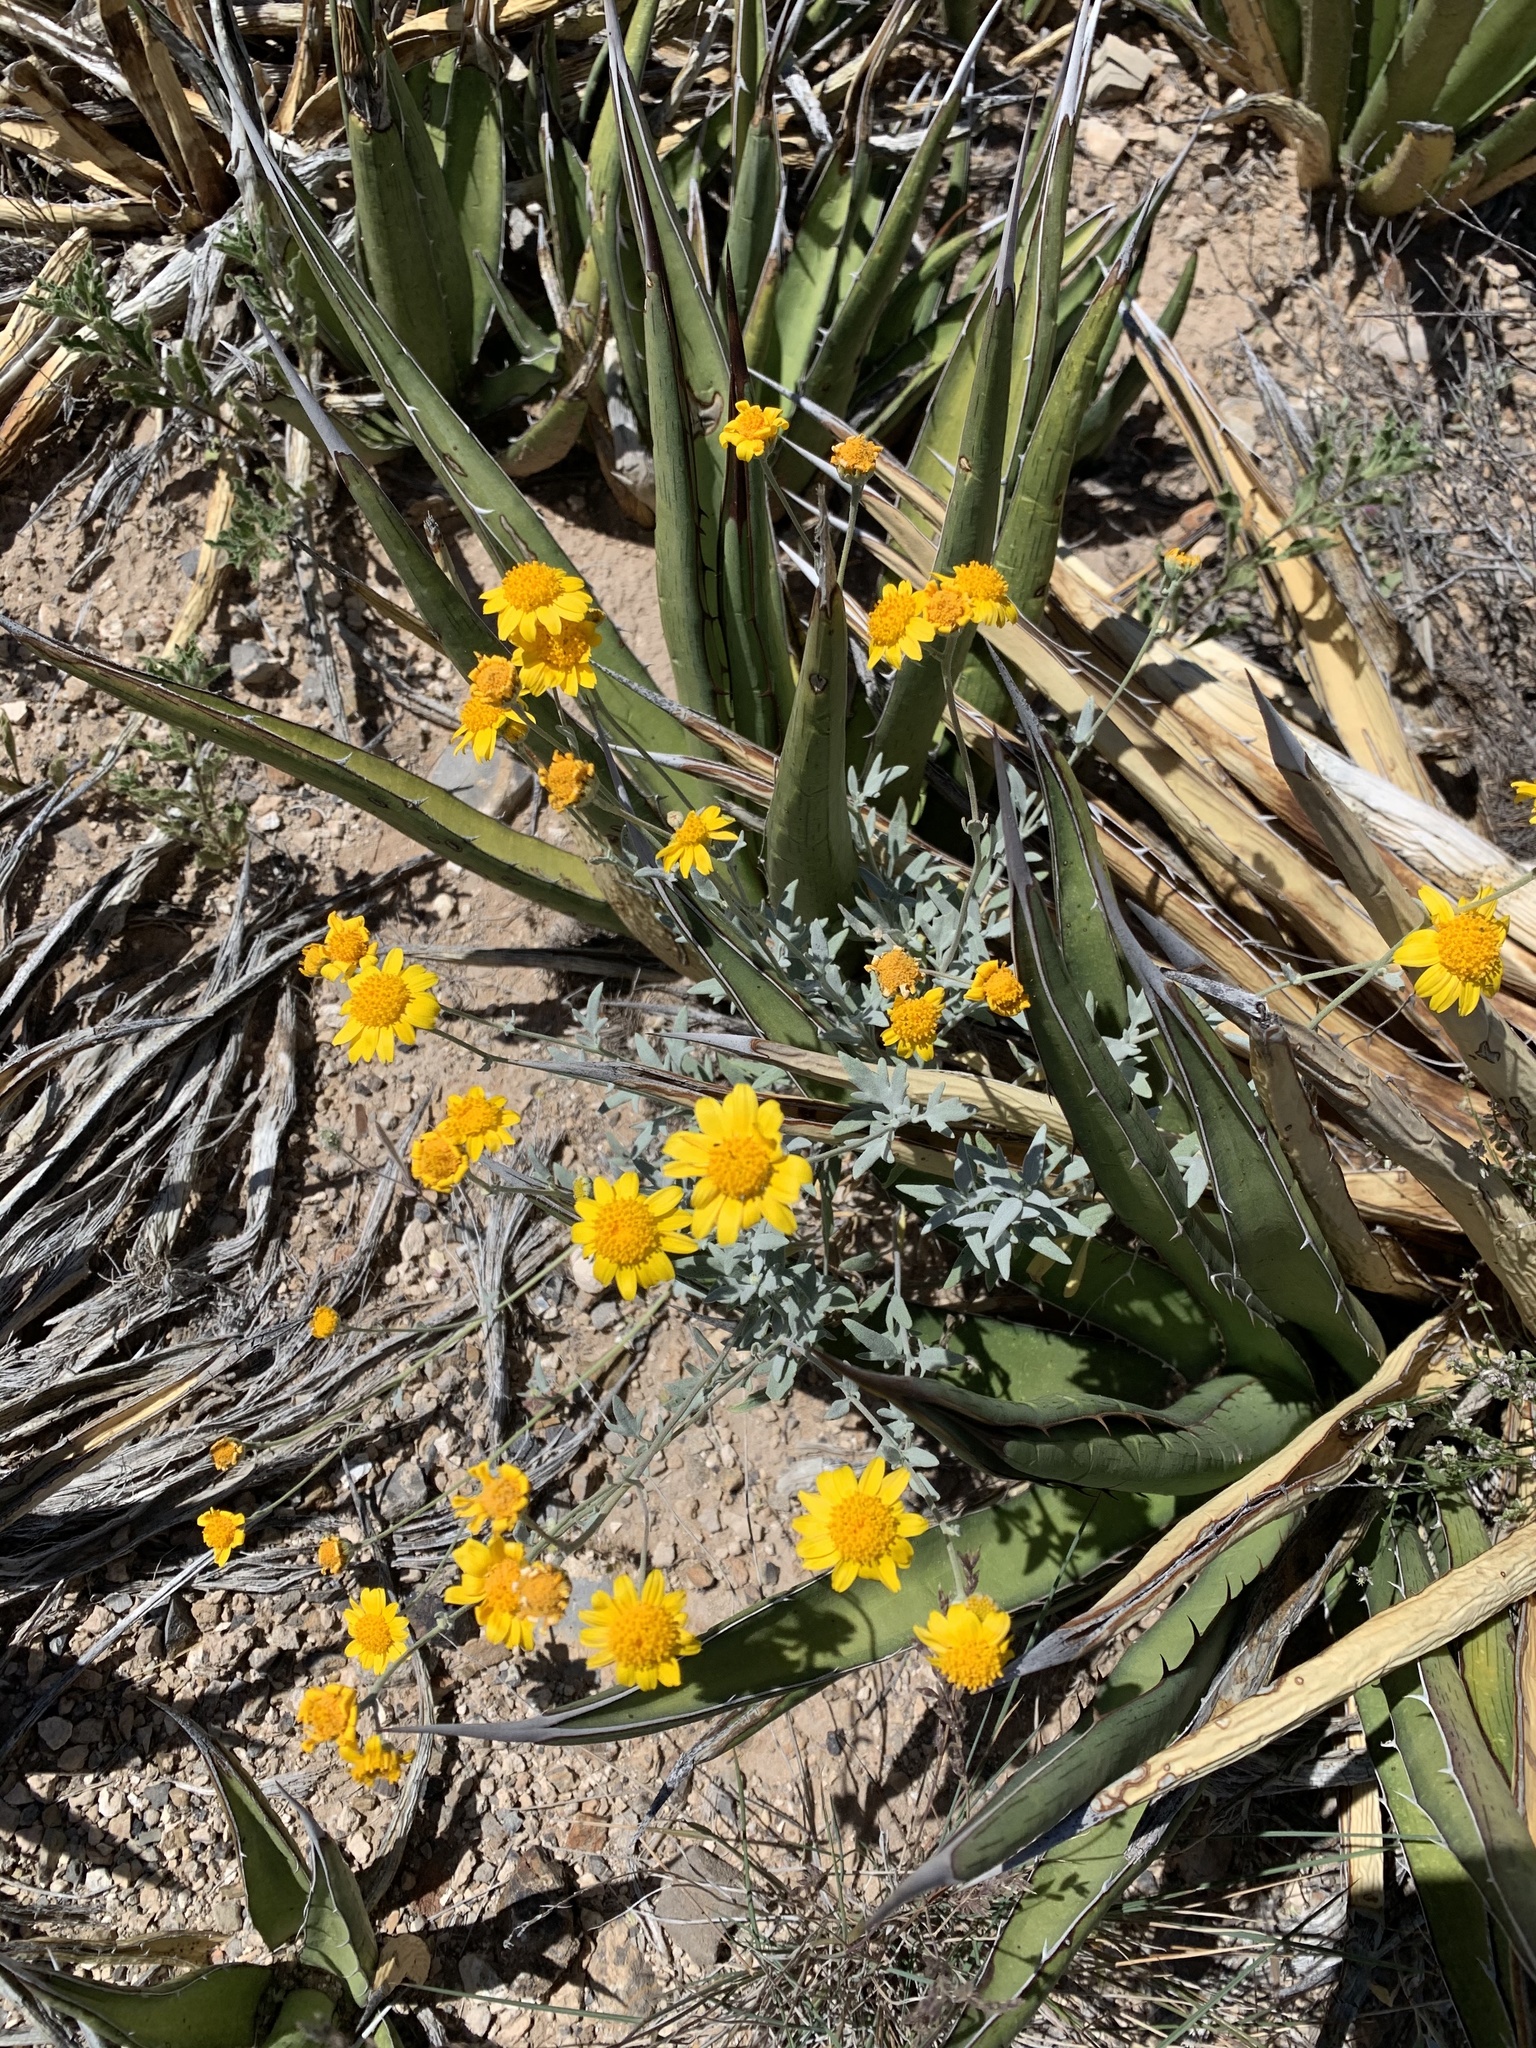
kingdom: Plantae
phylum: Tracheophyta
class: Magnoliopsida
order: Asterales
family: Asteraceae
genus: Picradeniopsis
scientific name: Picradeniopsis absinthifolia
